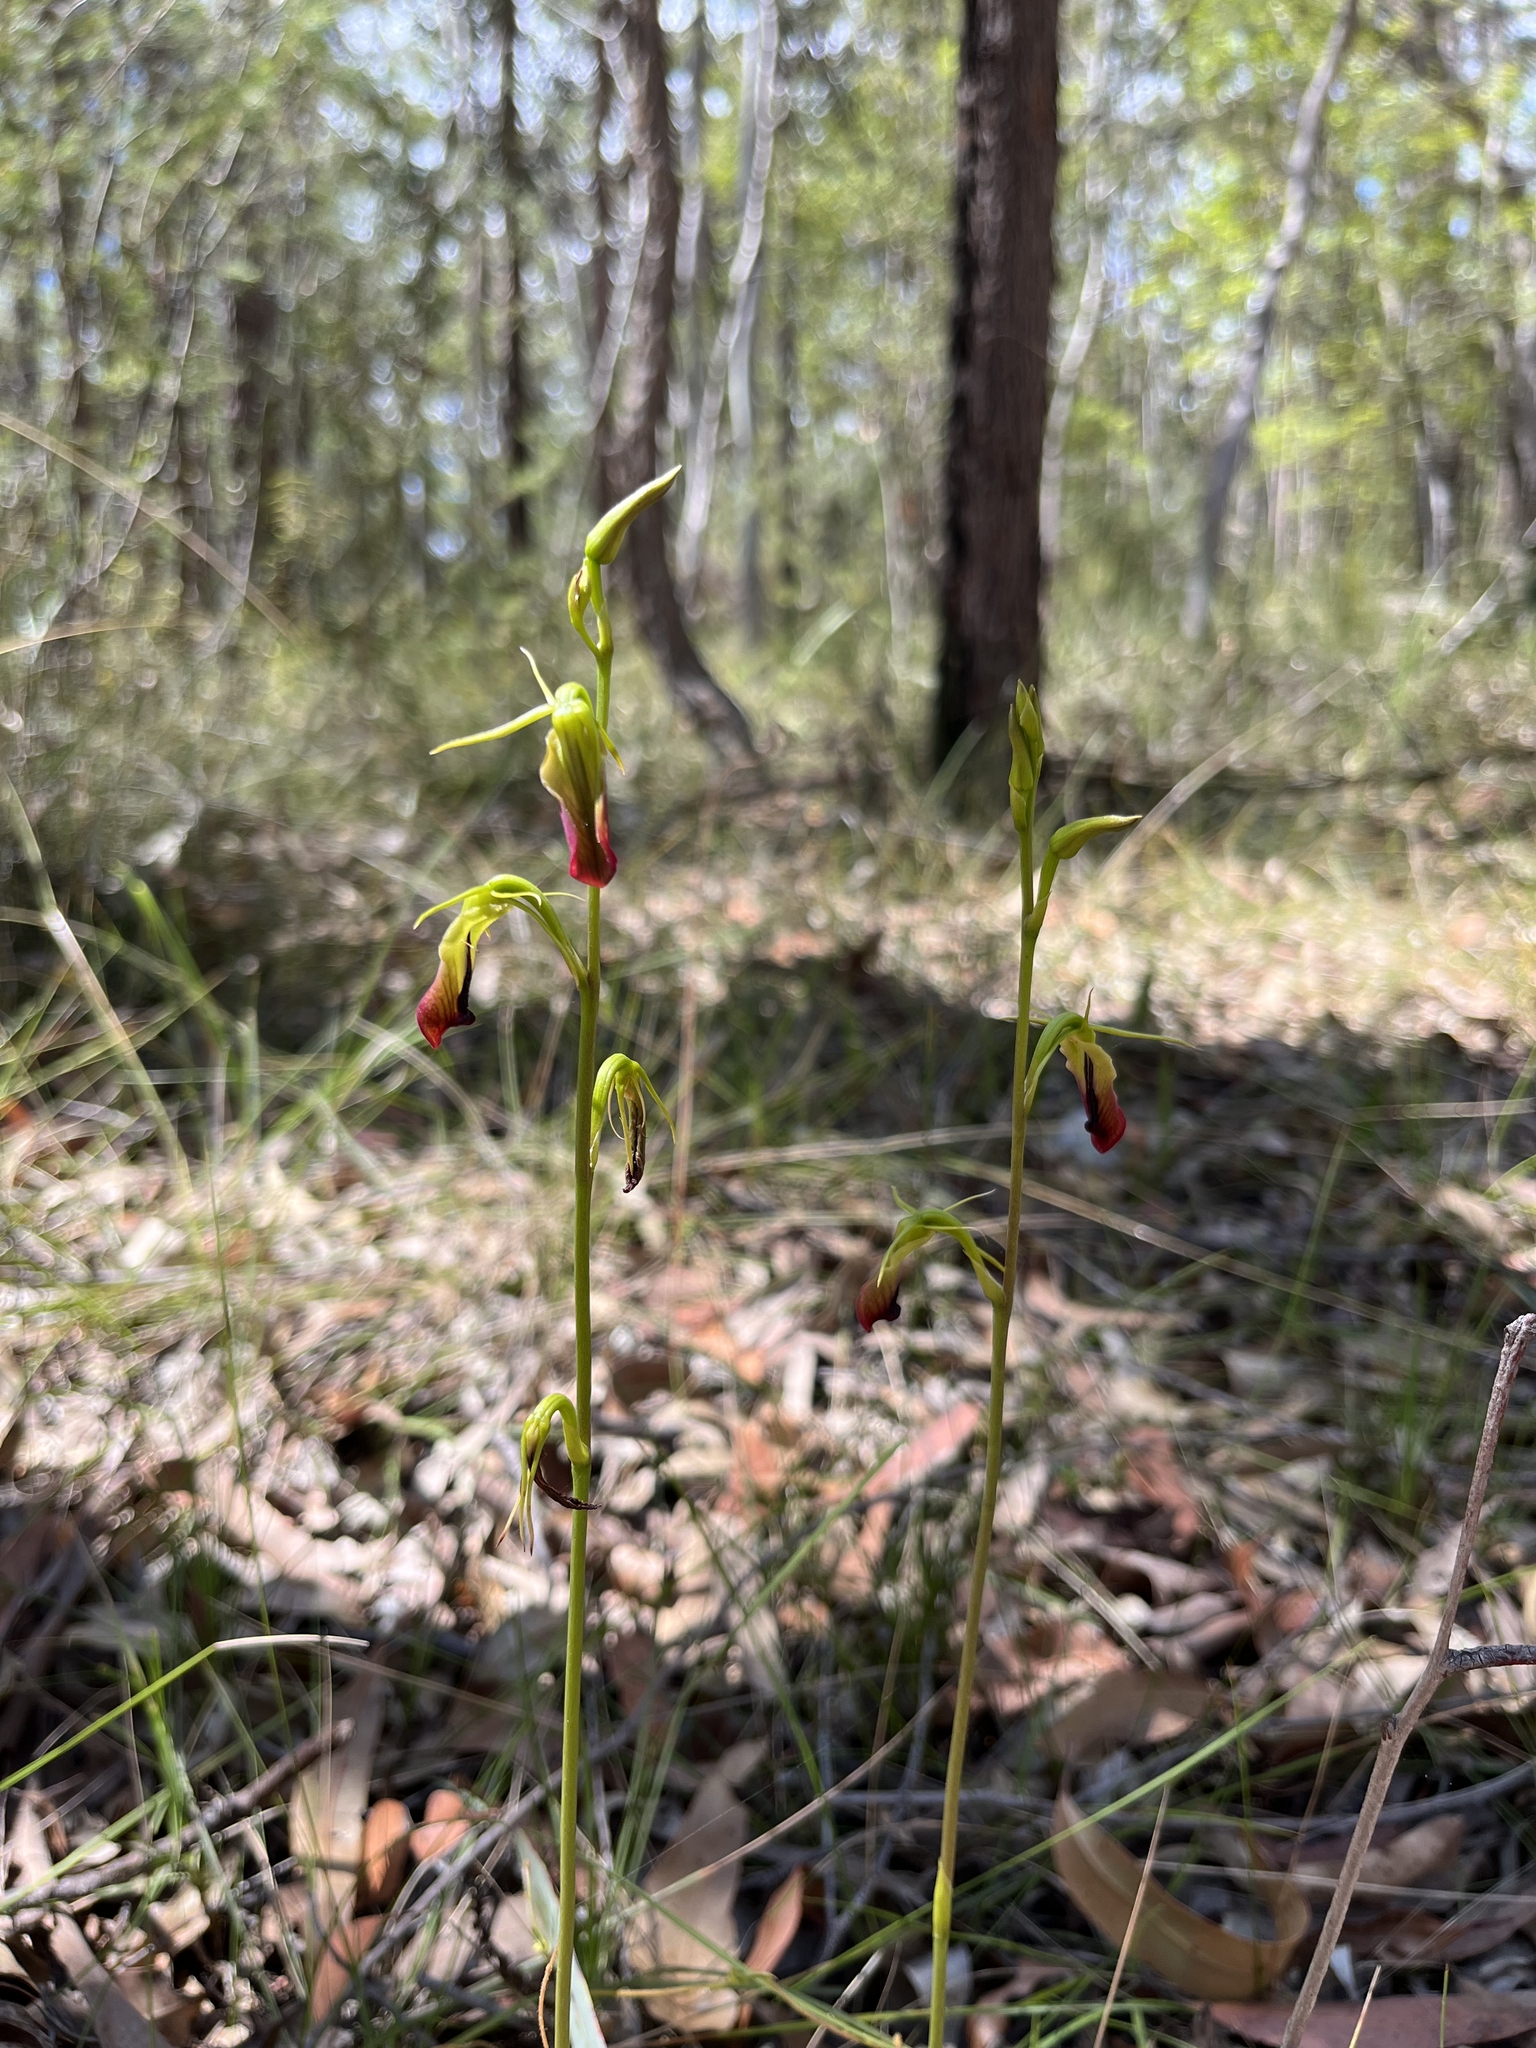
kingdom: Plantae
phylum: Tracheophyta
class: Liliopsida
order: Asparagales
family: Orchidaceae
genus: Cryptostylis
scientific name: Cryptostylis subulata
